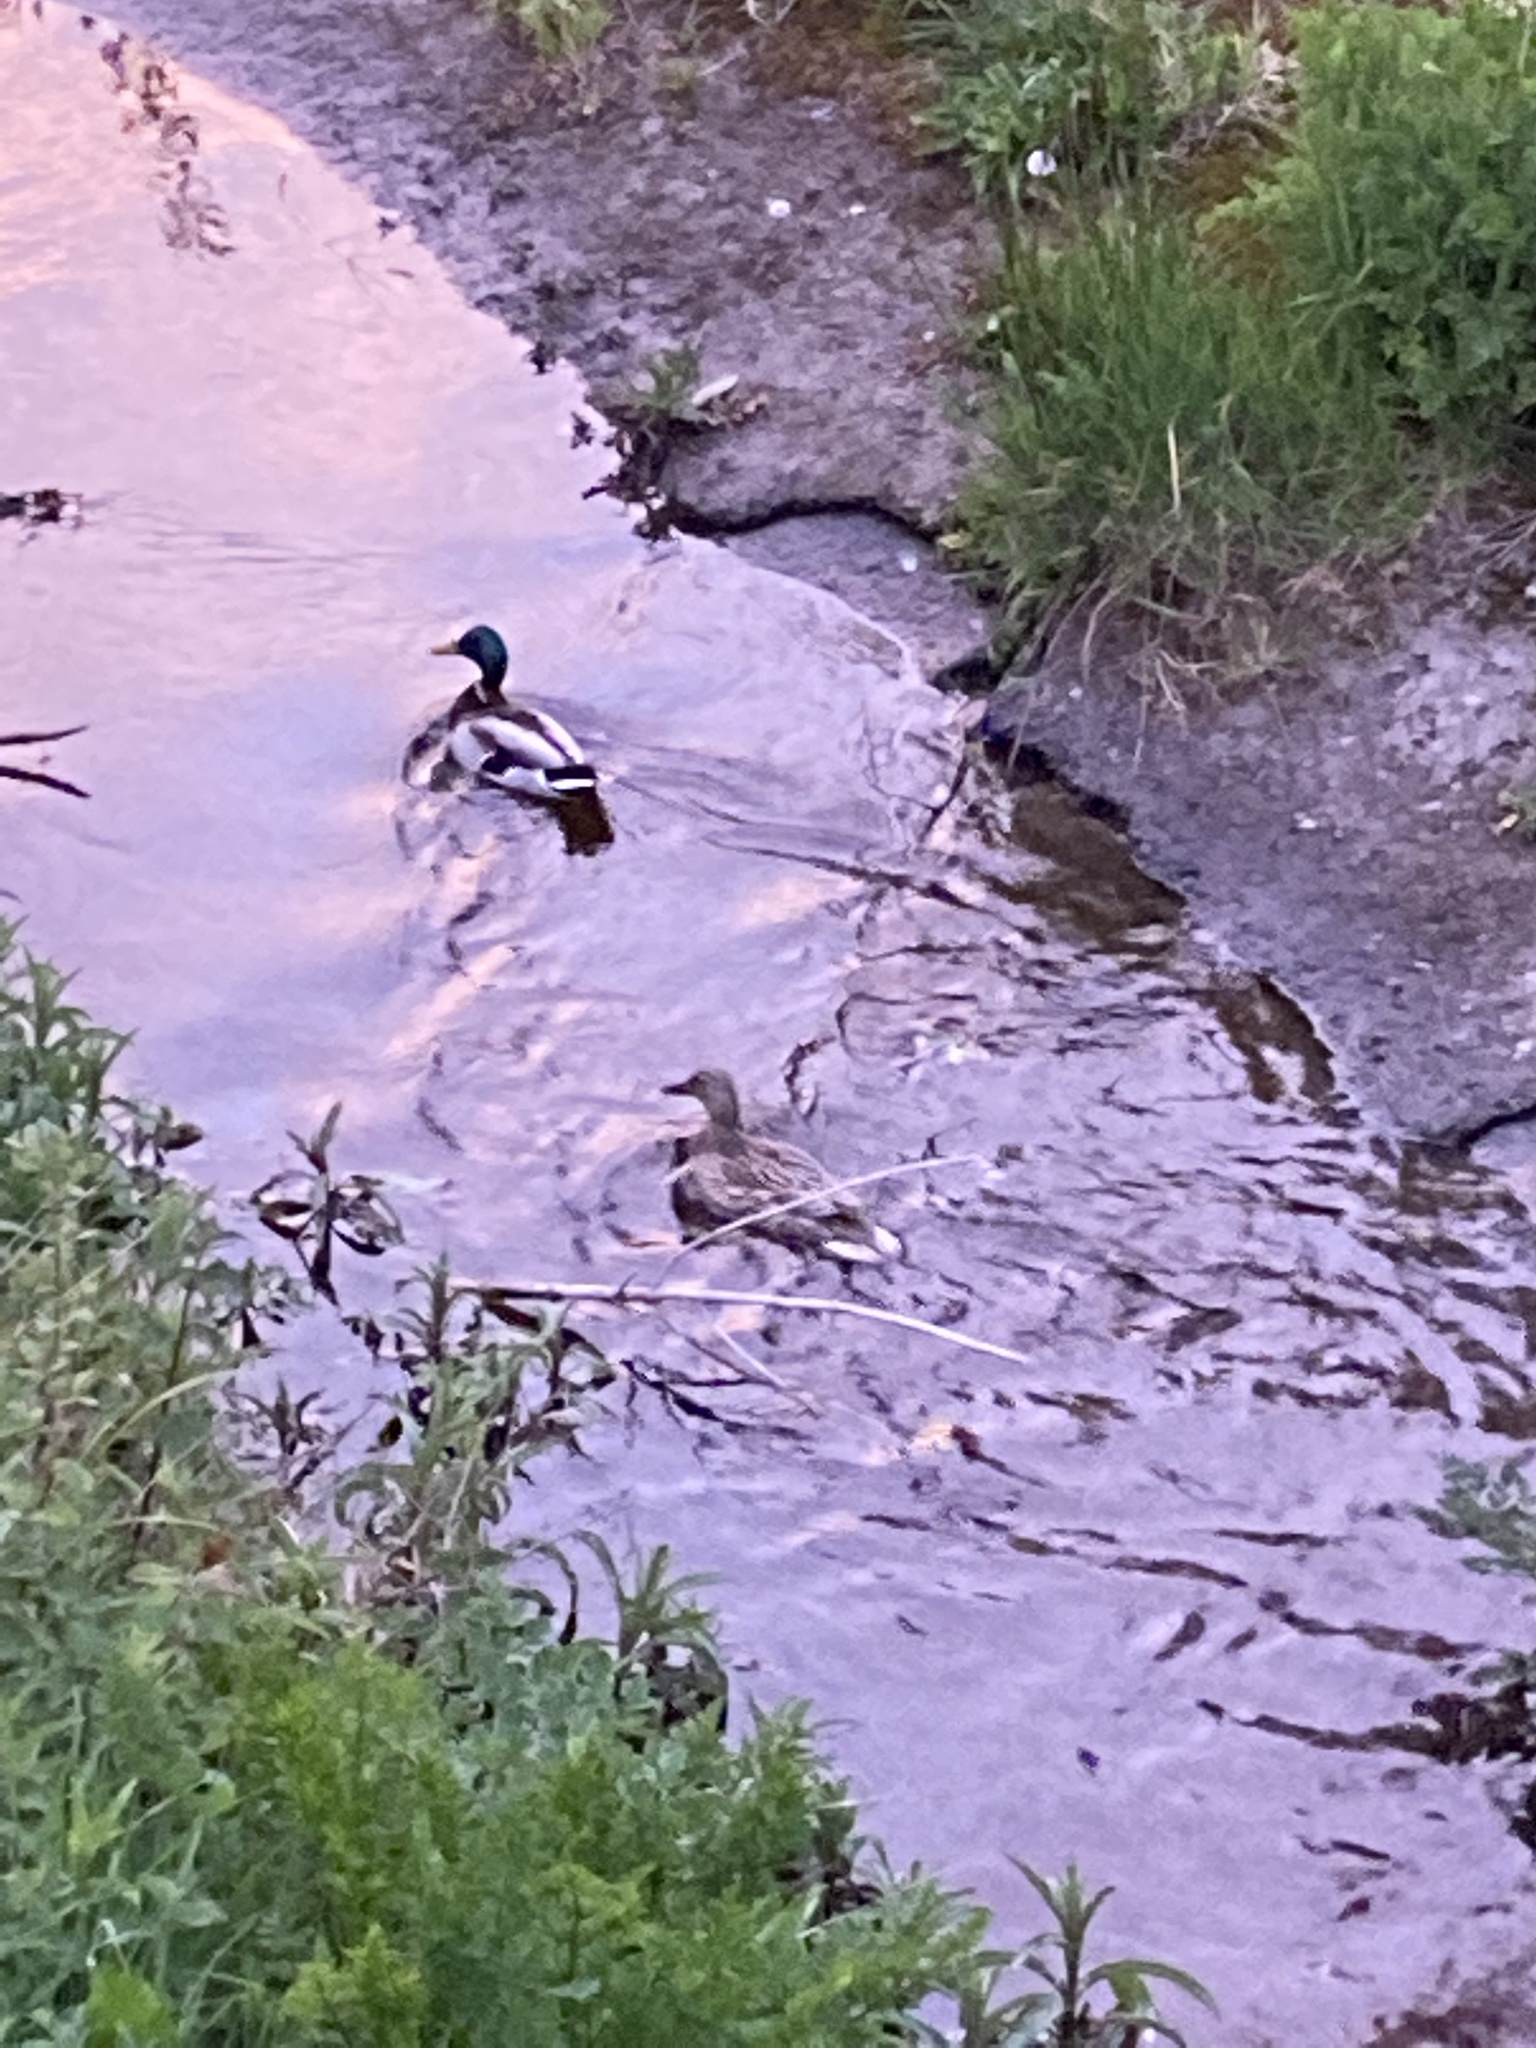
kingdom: Animalia
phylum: Chordata
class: Aves
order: Anseriformes
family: Anatidae
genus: Anas
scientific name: Anas platyrhynchos
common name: Mallard
